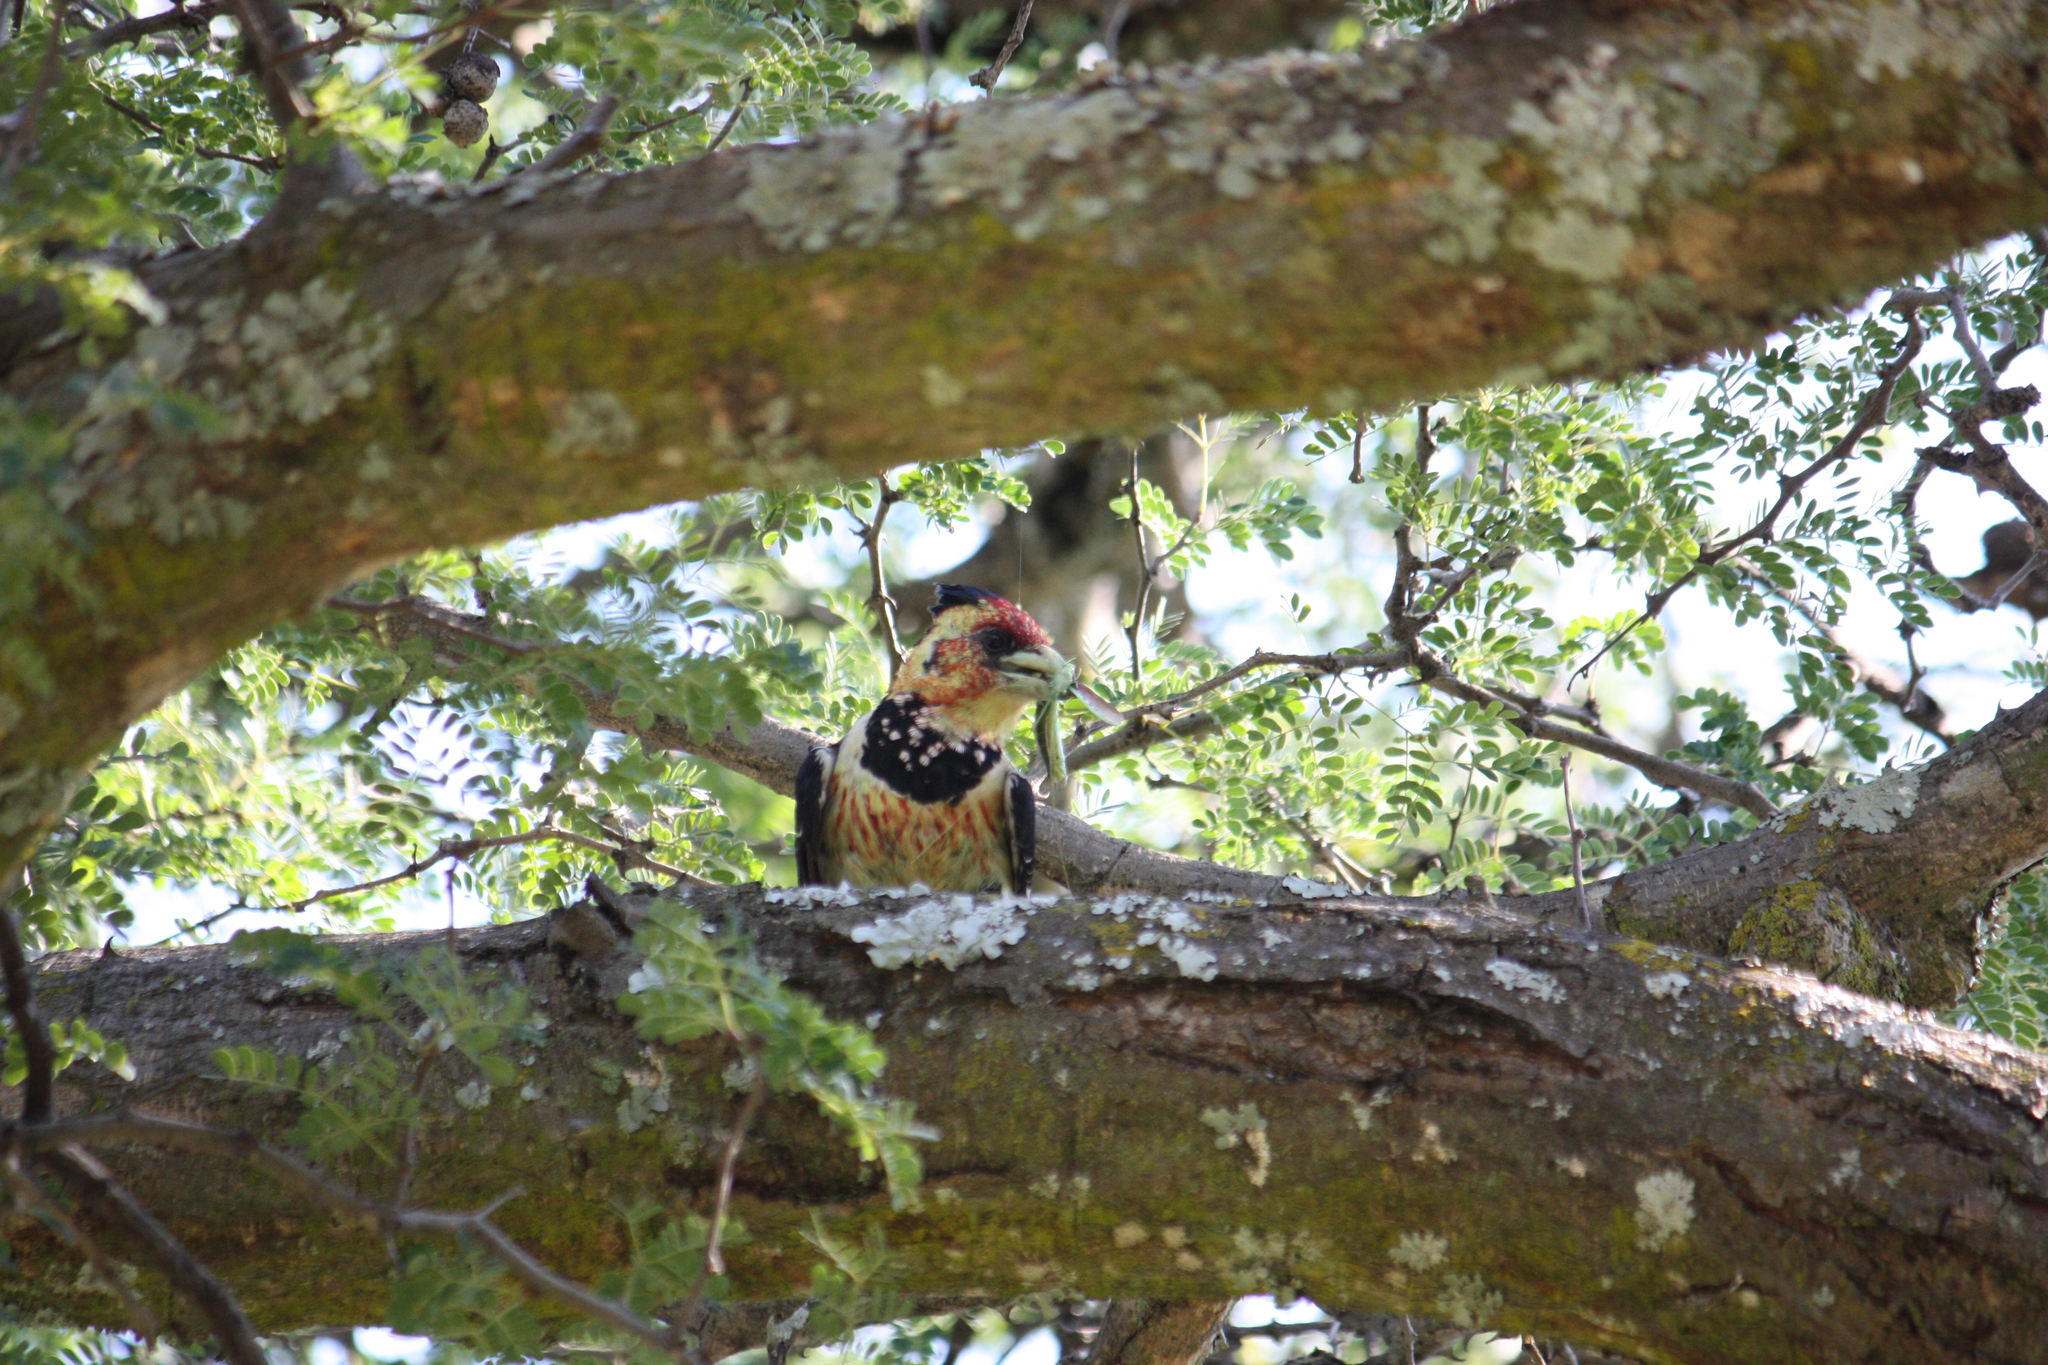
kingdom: Animalia
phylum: Chordata
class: Aves
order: Piciformes
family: Lybiidae
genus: Trachyphonus
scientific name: Trachyphonus vaillantii
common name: Crested barbet
